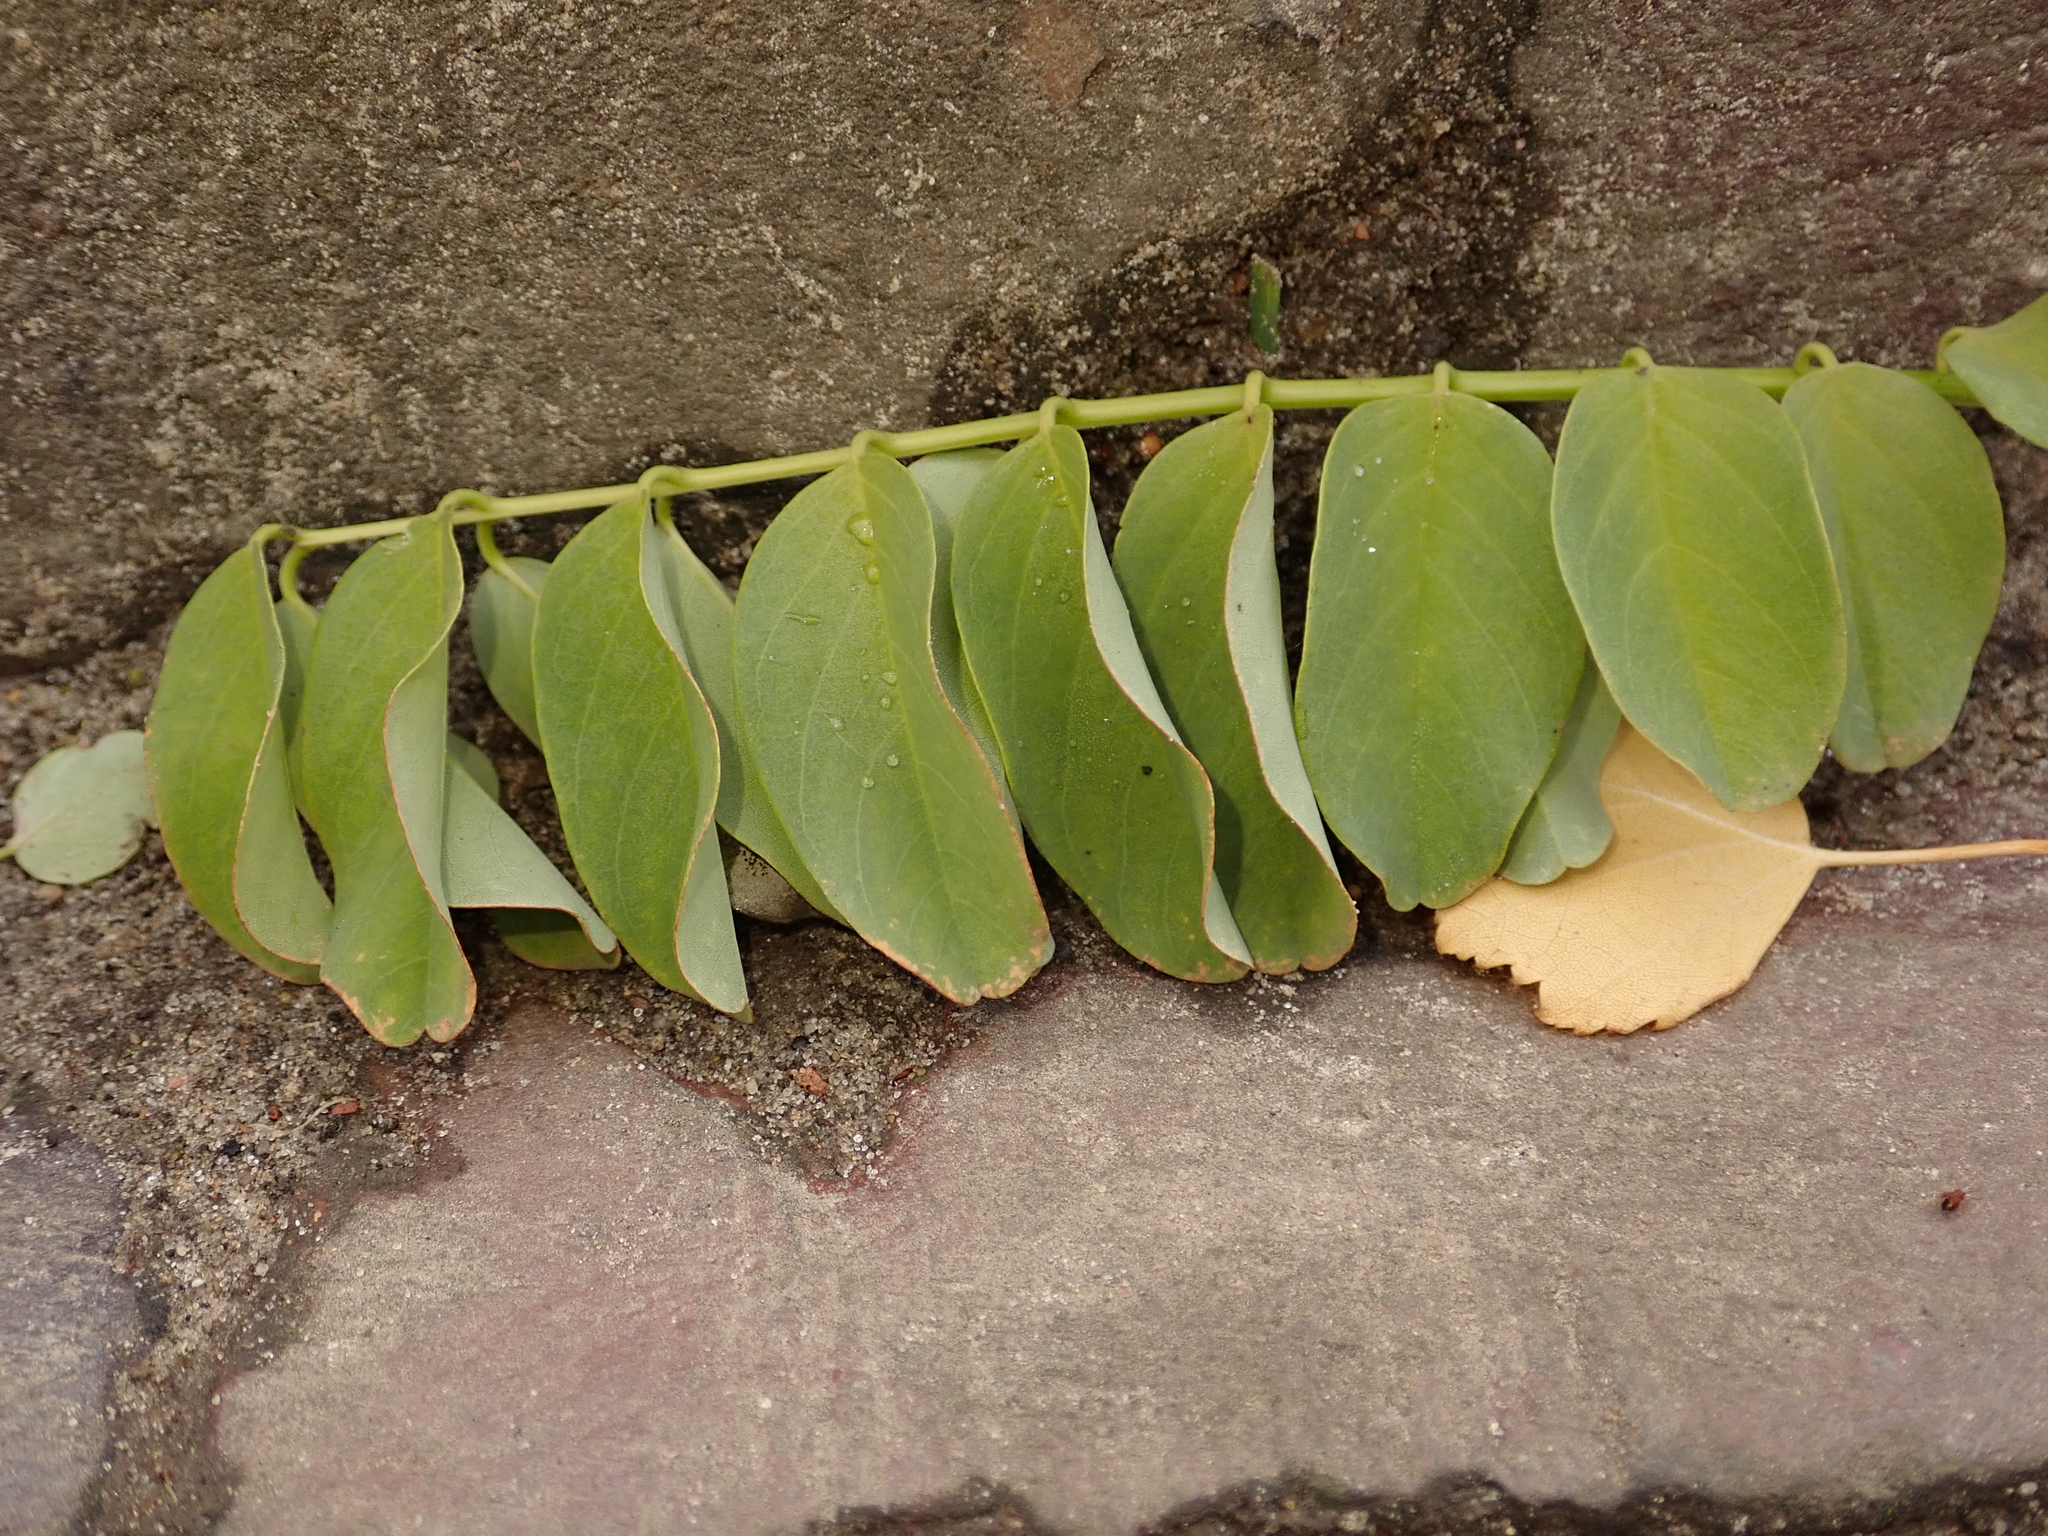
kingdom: Plantae
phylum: Tracheophyta
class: Magnoliopsida
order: Fabales
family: Fabaceae
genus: Robinia
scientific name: Robinia pseudoacacia
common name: Black locust
